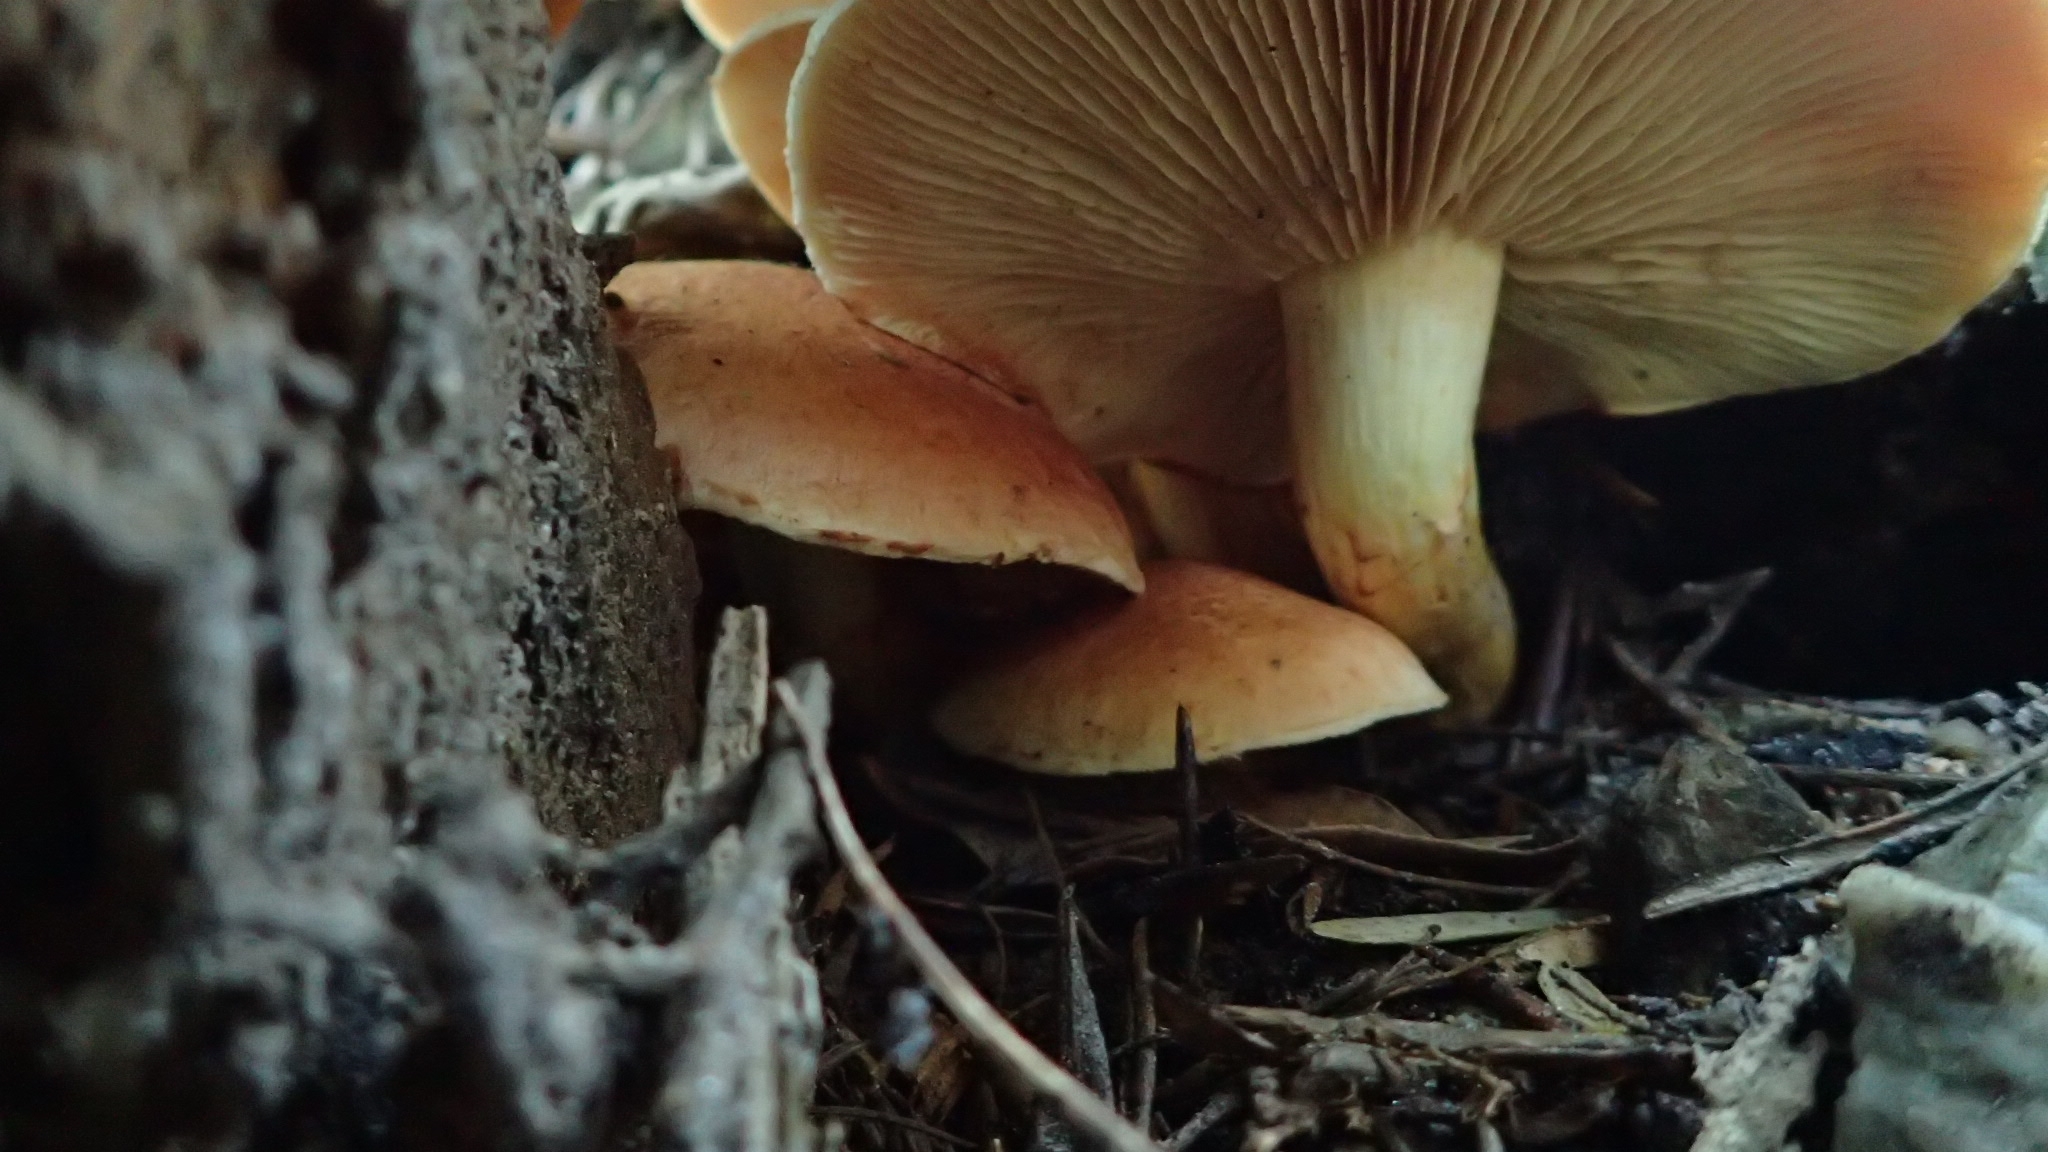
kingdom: Fungi
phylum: Basidiomycota
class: Agaricomycetes
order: Agaricales
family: Hymenogastraceae
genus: Gymnopilus
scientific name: Gymnopilus junonius
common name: Spectacular rustgill
